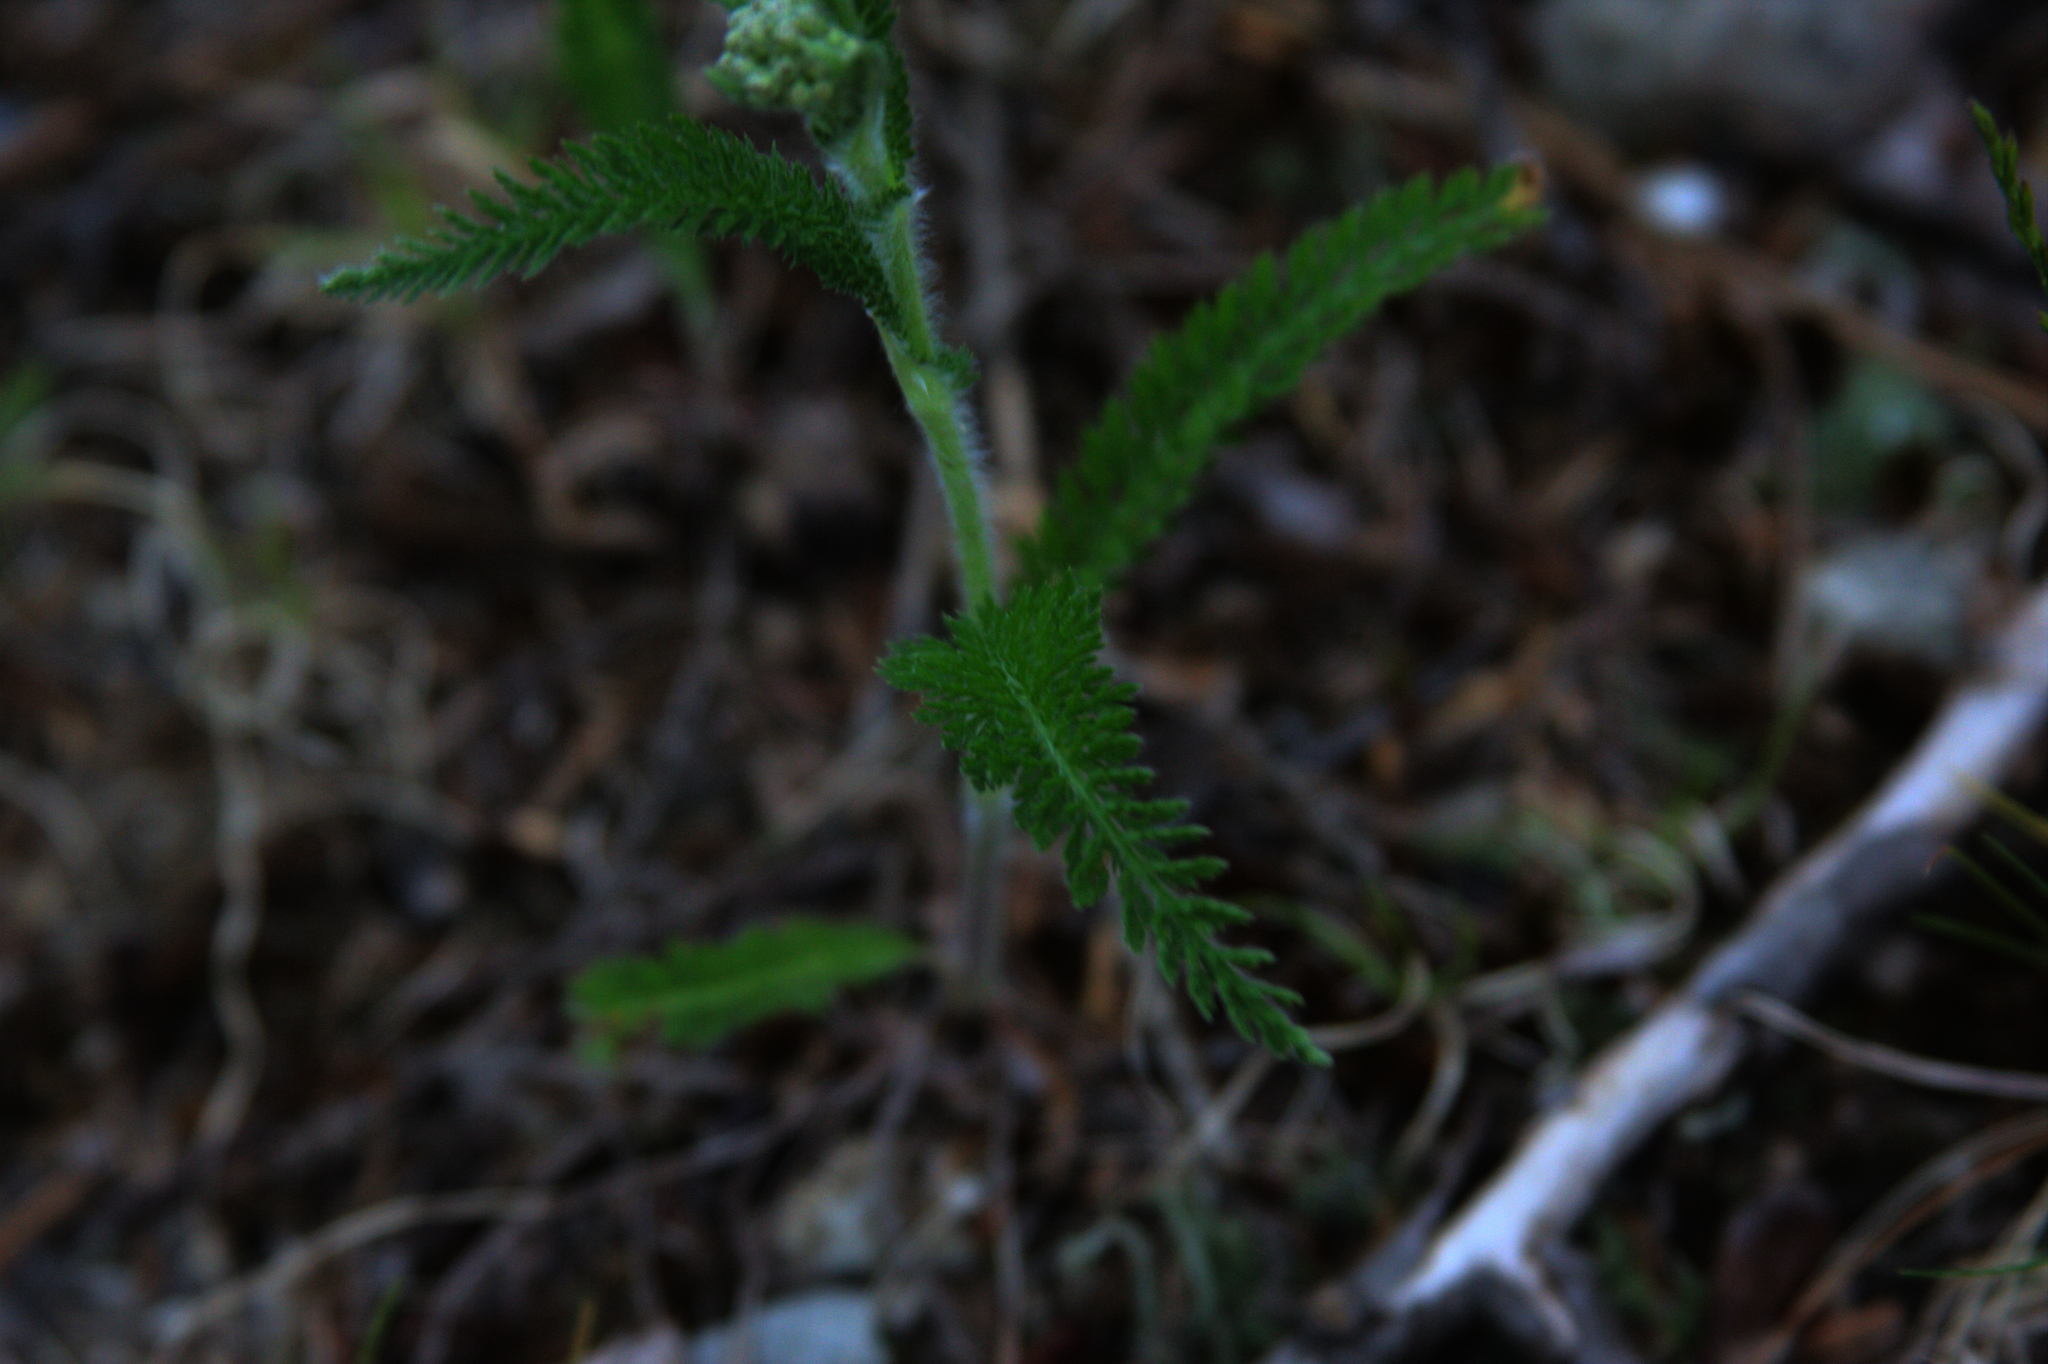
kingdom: Plantae
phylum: Tracheophyta
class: Magnoliopsida
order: Asterales
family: Asteraceae
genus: Achillea
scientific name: Achillea millefolium
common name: Yarrow
